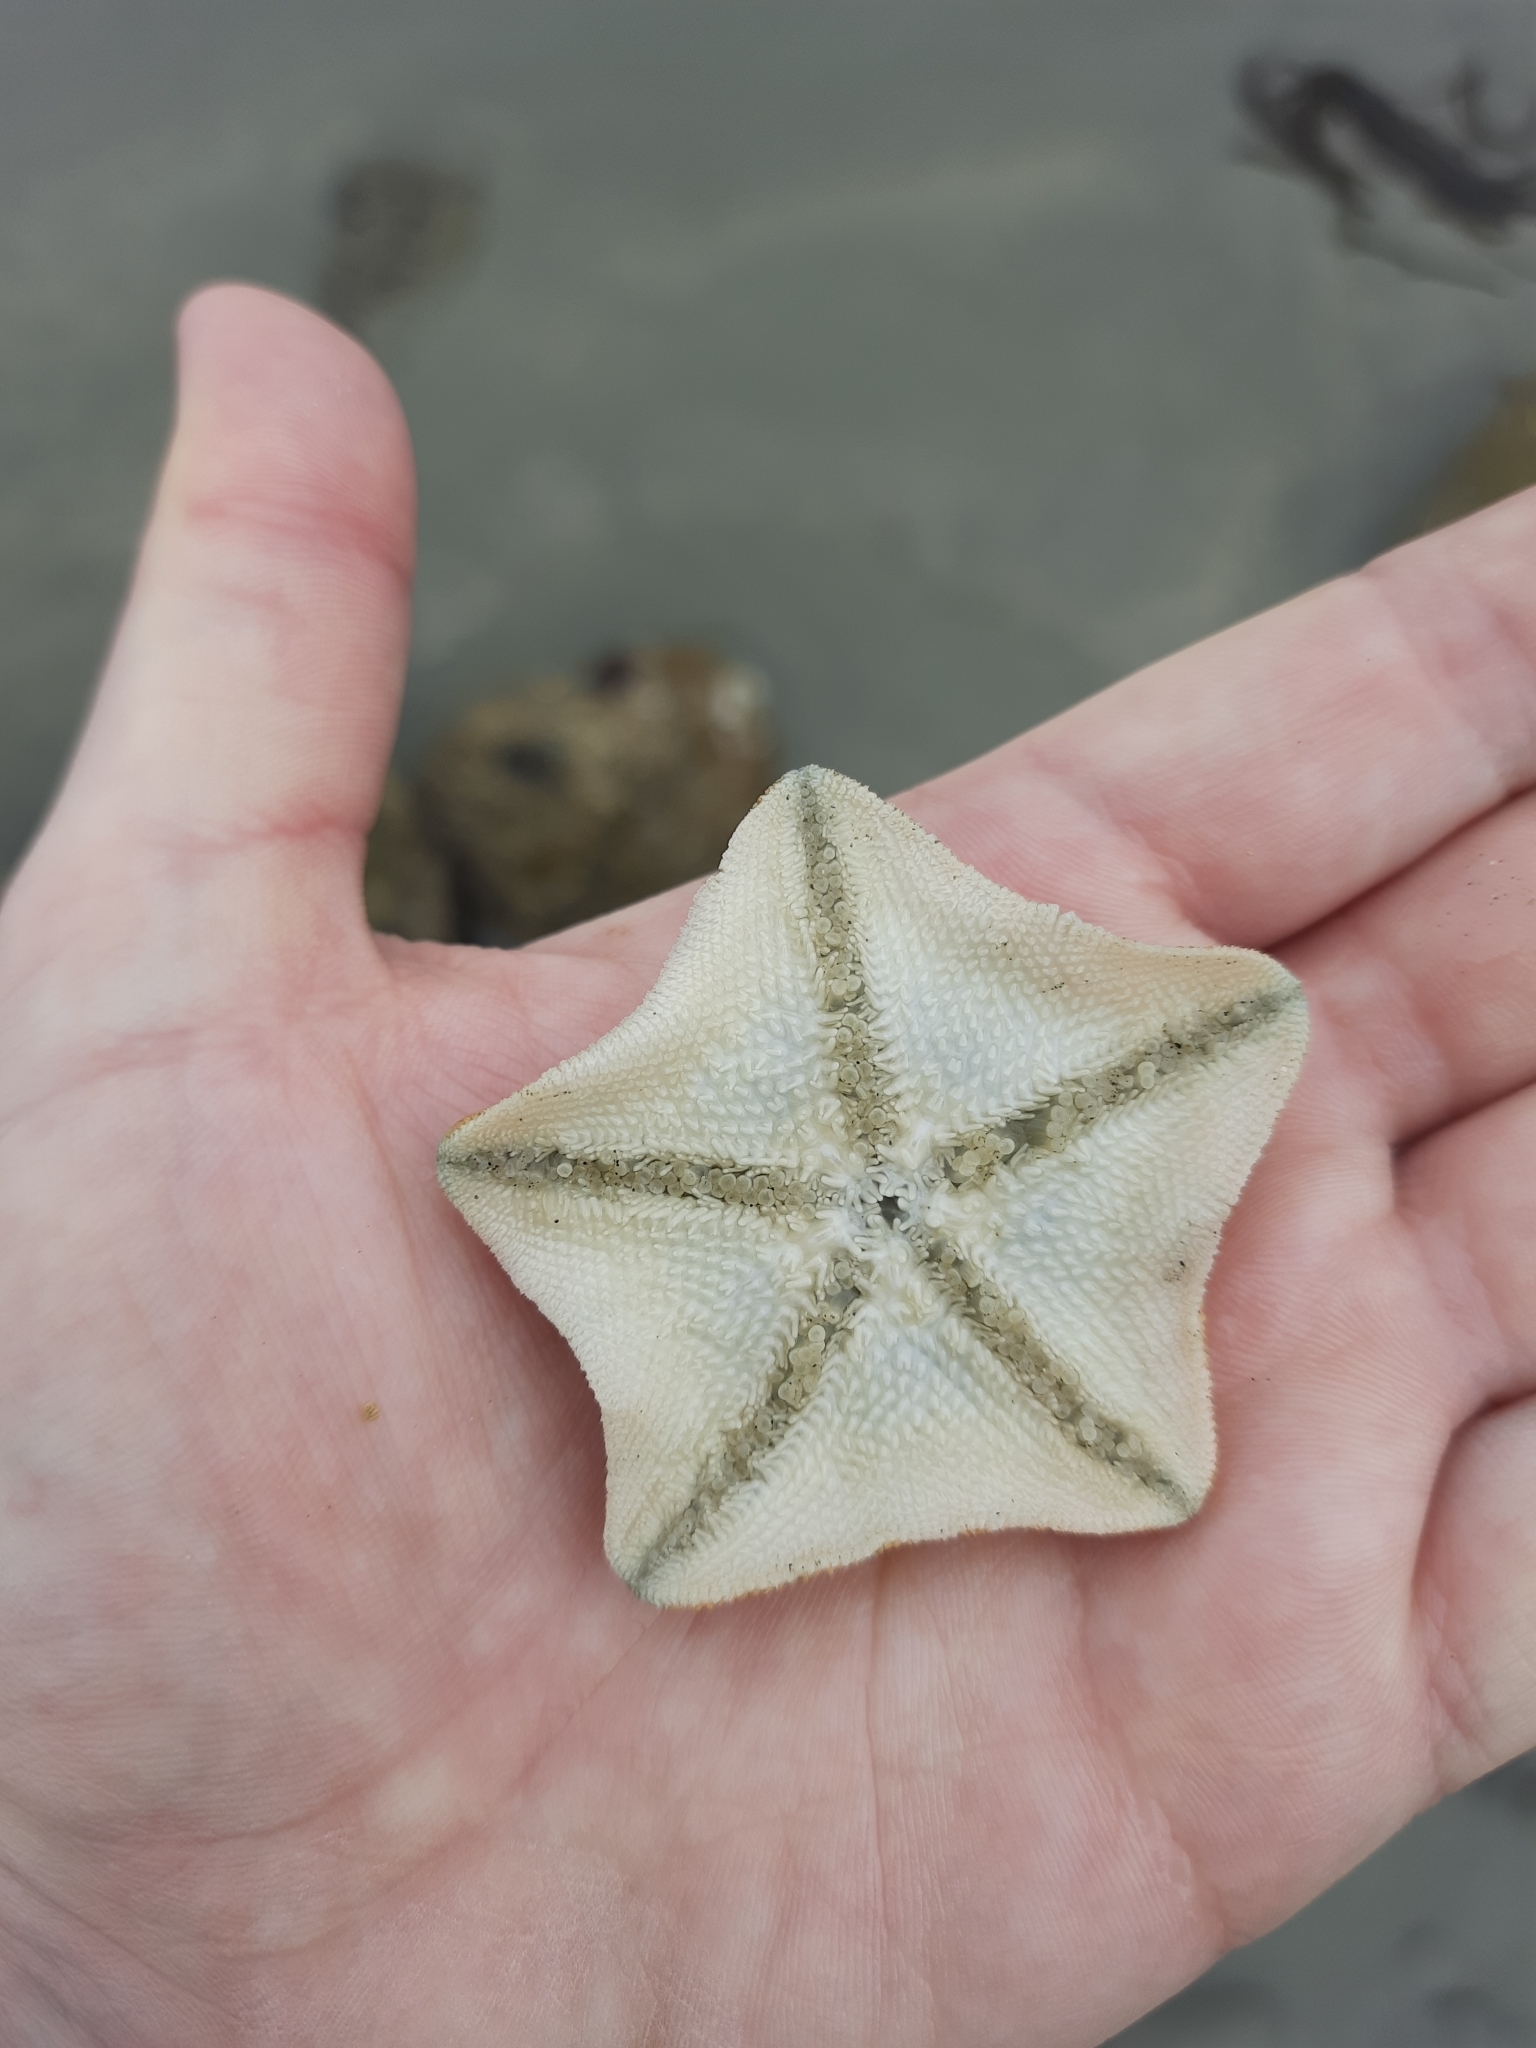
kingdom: Animalia
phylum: Echinodermata
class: Asteroidea
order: Valvatida
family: Asterinidae
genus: Patiriella
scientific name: Patiriella regularis
